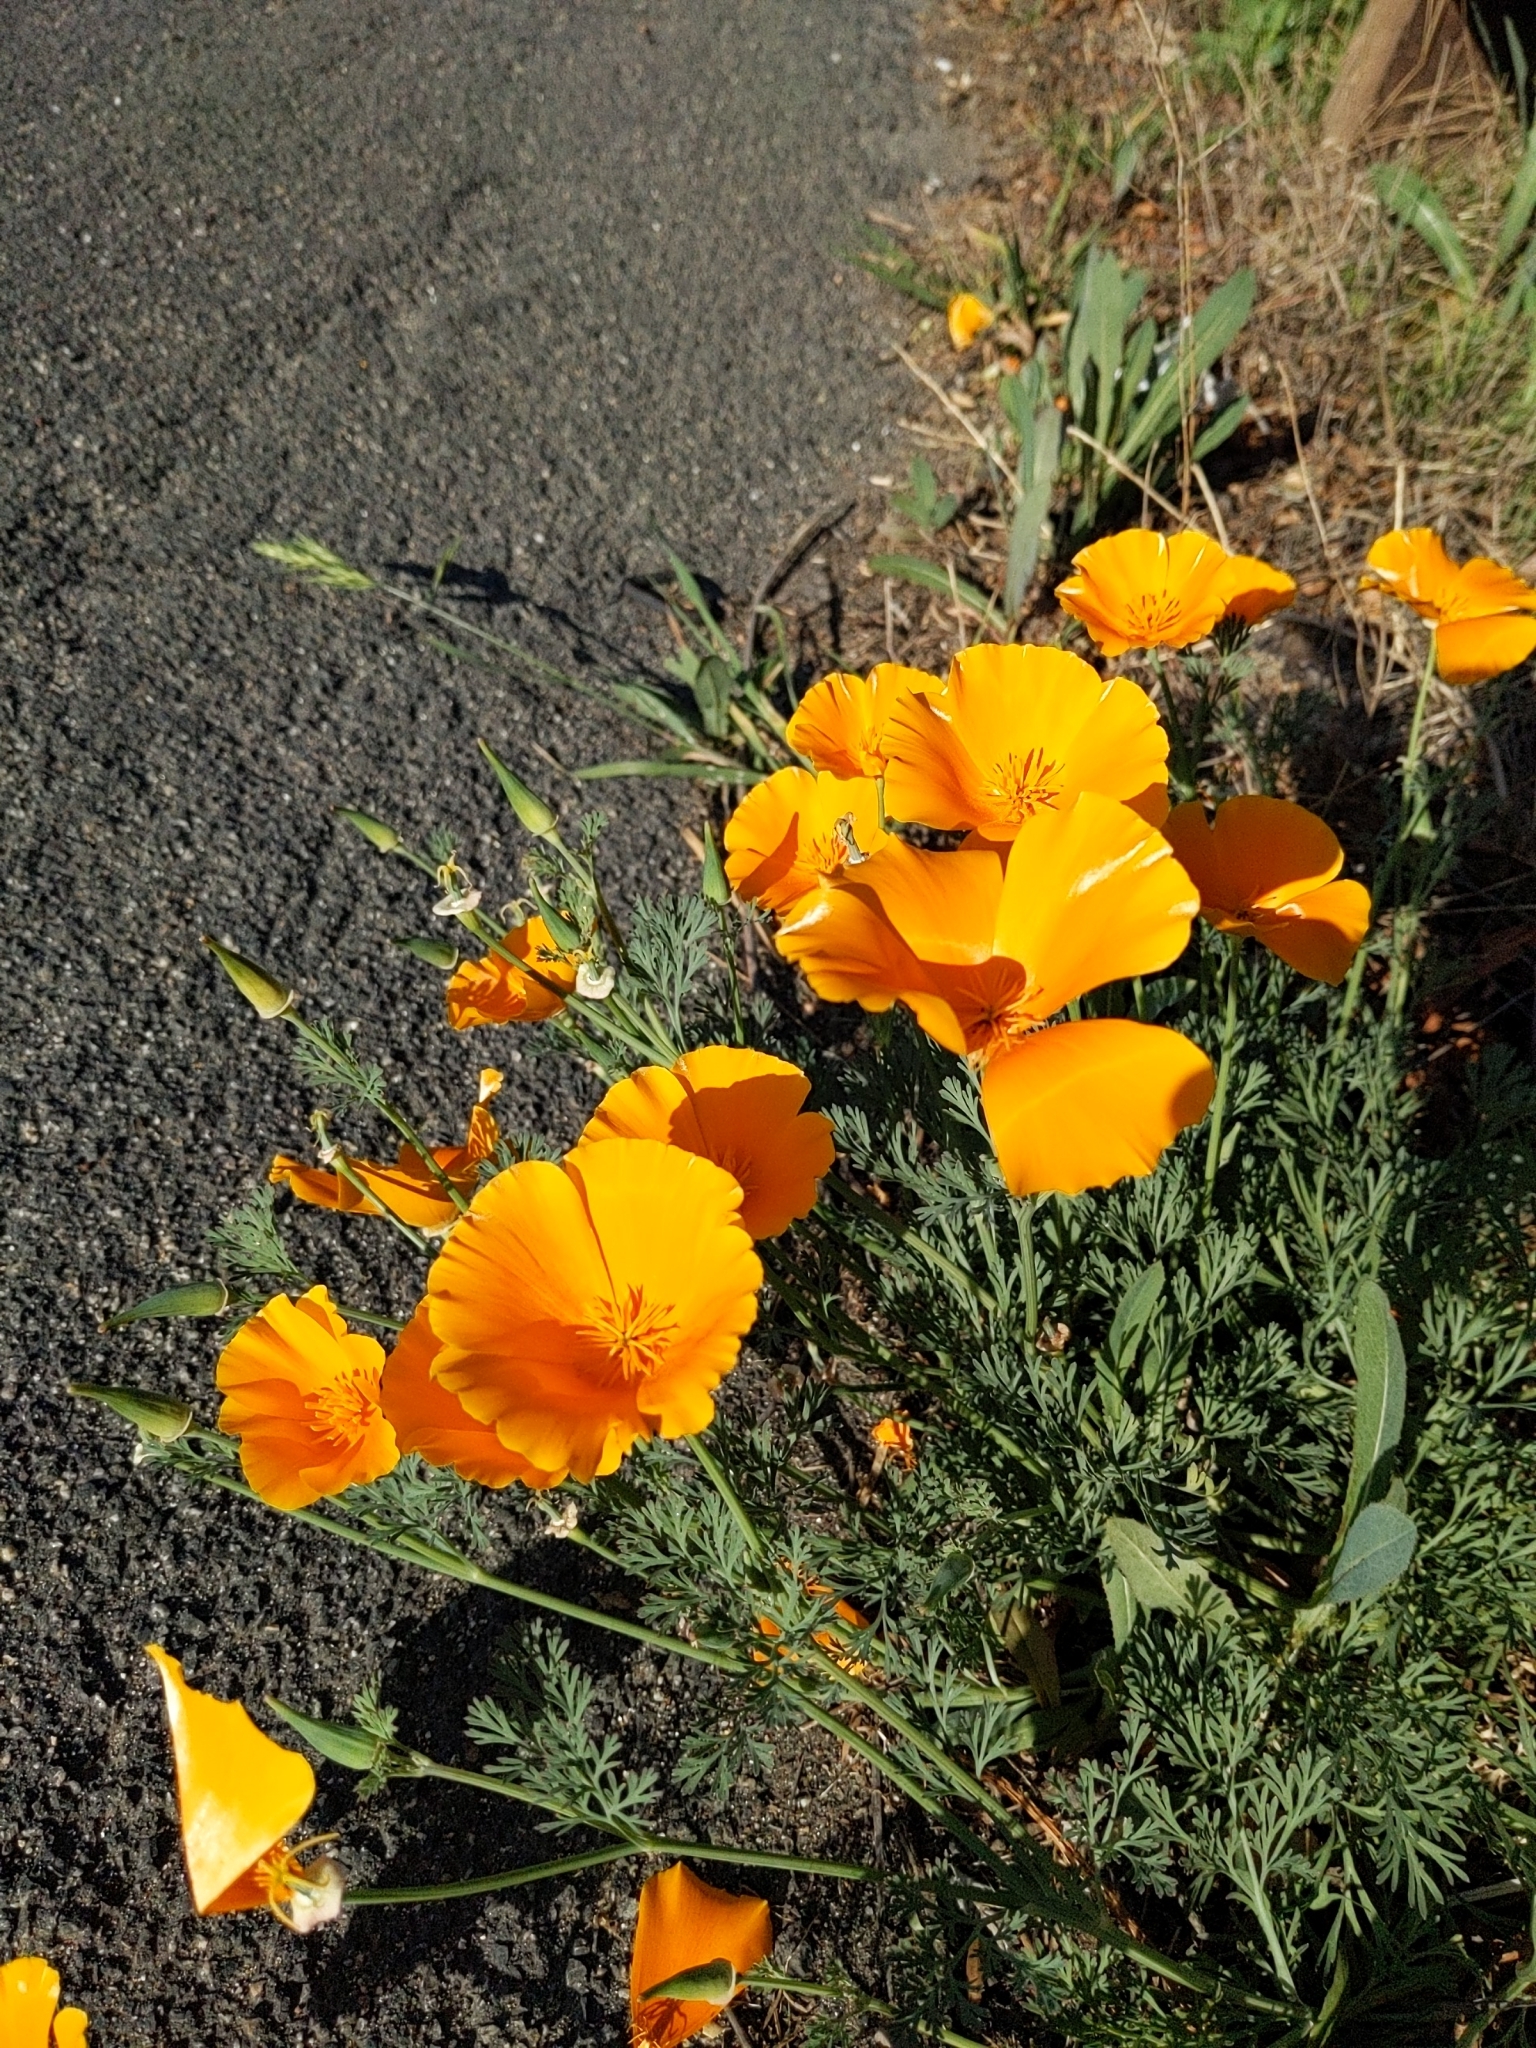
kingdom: Plantae
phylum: Tracheophyta
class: Magnoliopsida
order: Ranunculales
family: Papaveraceae
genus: Eschscholzia
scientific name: Eschscholzia californica
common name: California poppy
